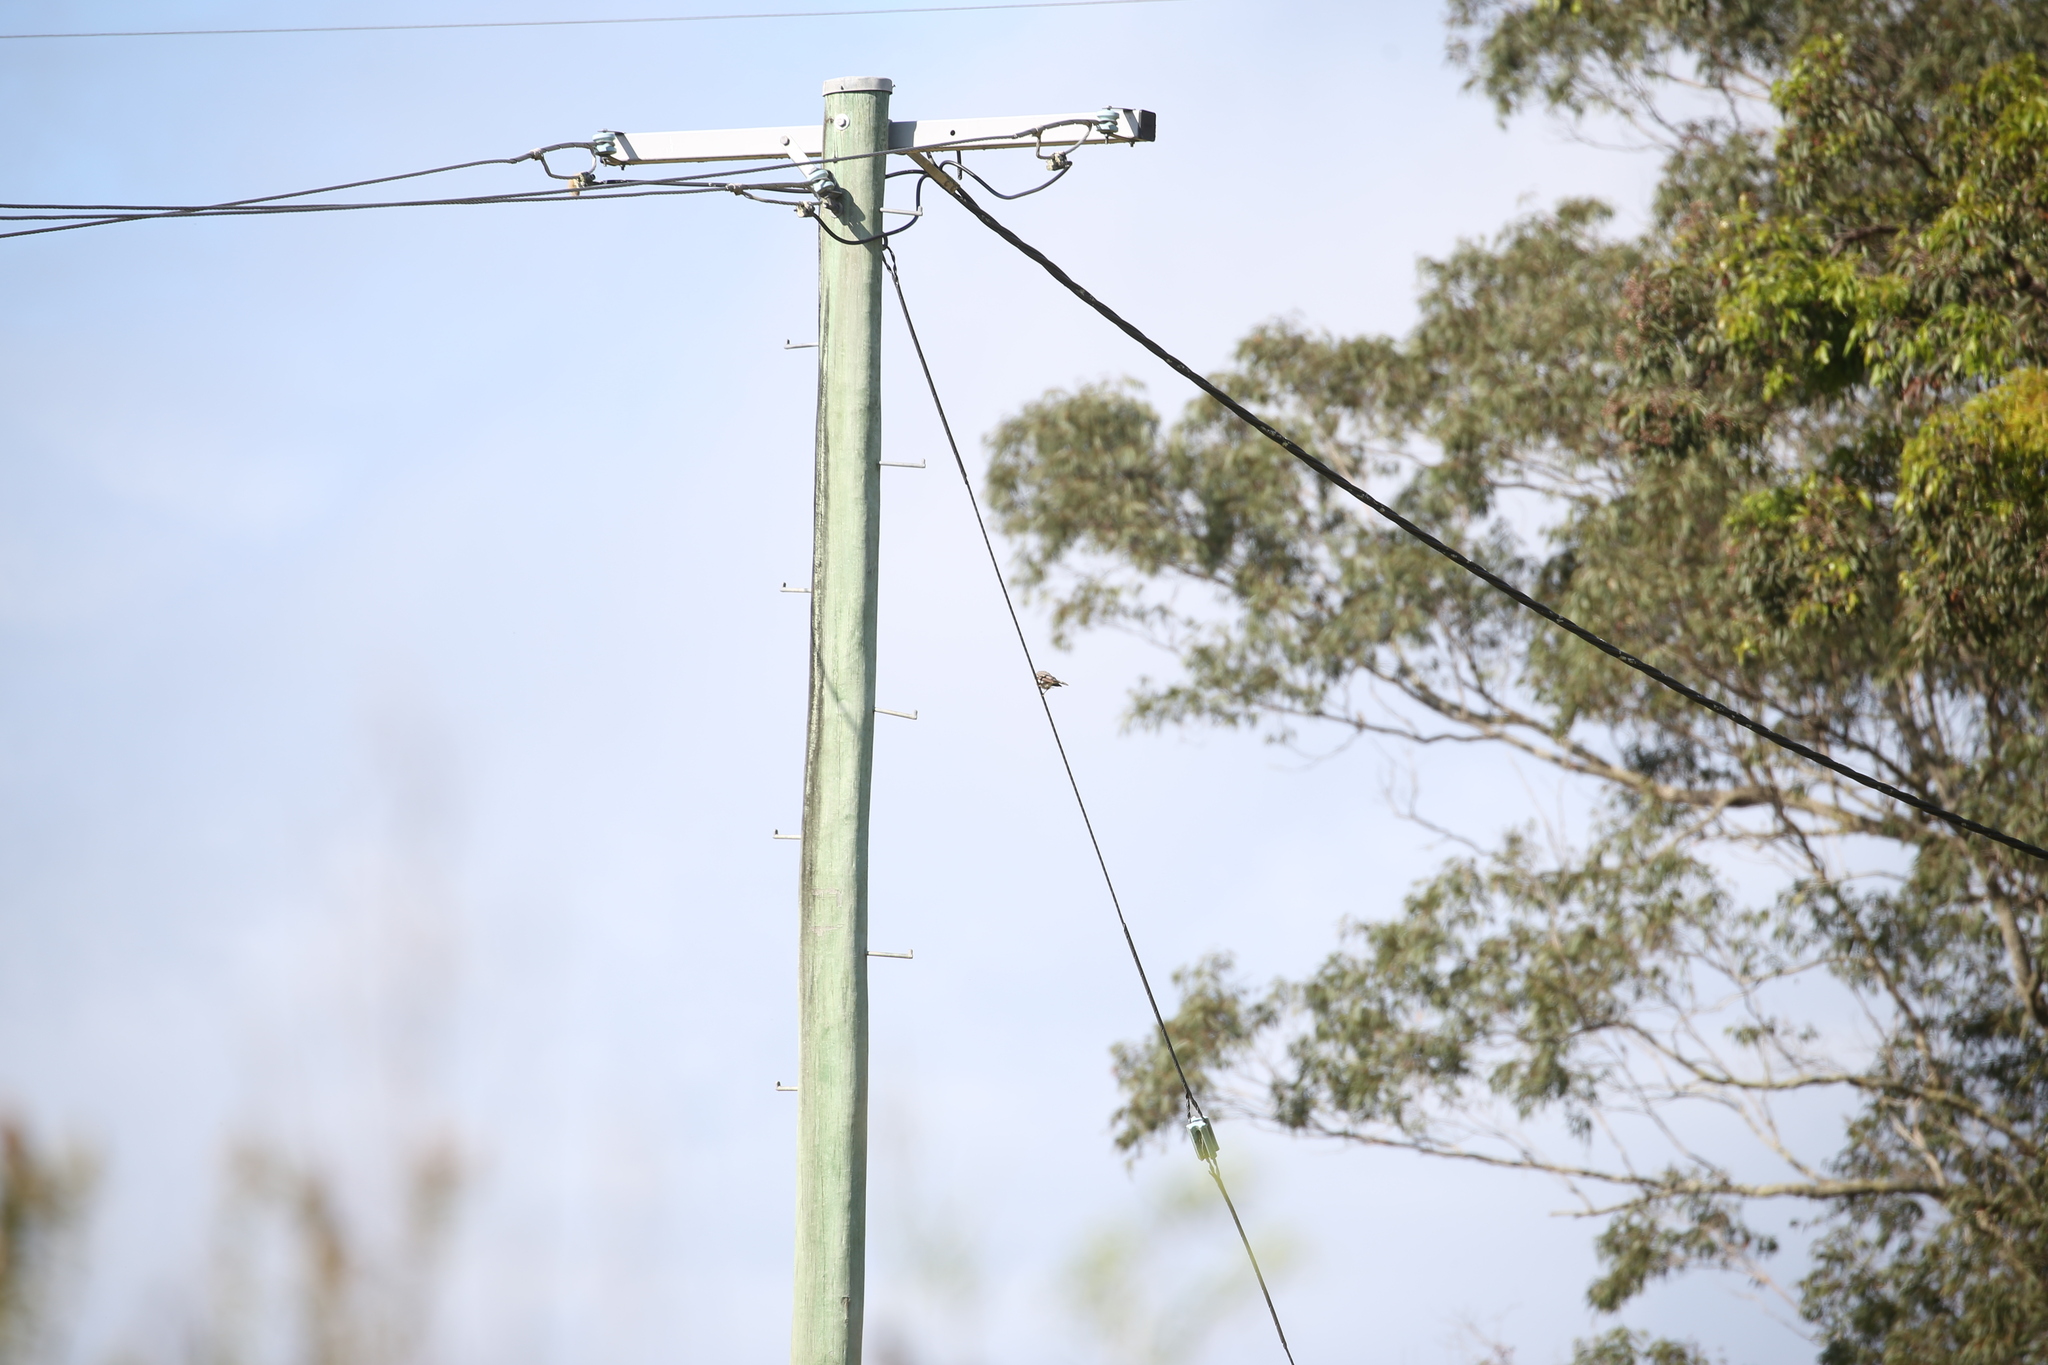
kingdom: Animalia
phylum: Chordata
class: Aves
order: Passeriformes
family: Meliphagidae
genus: Manorina
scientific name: Manorina melanocephala
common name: Noisy miner
